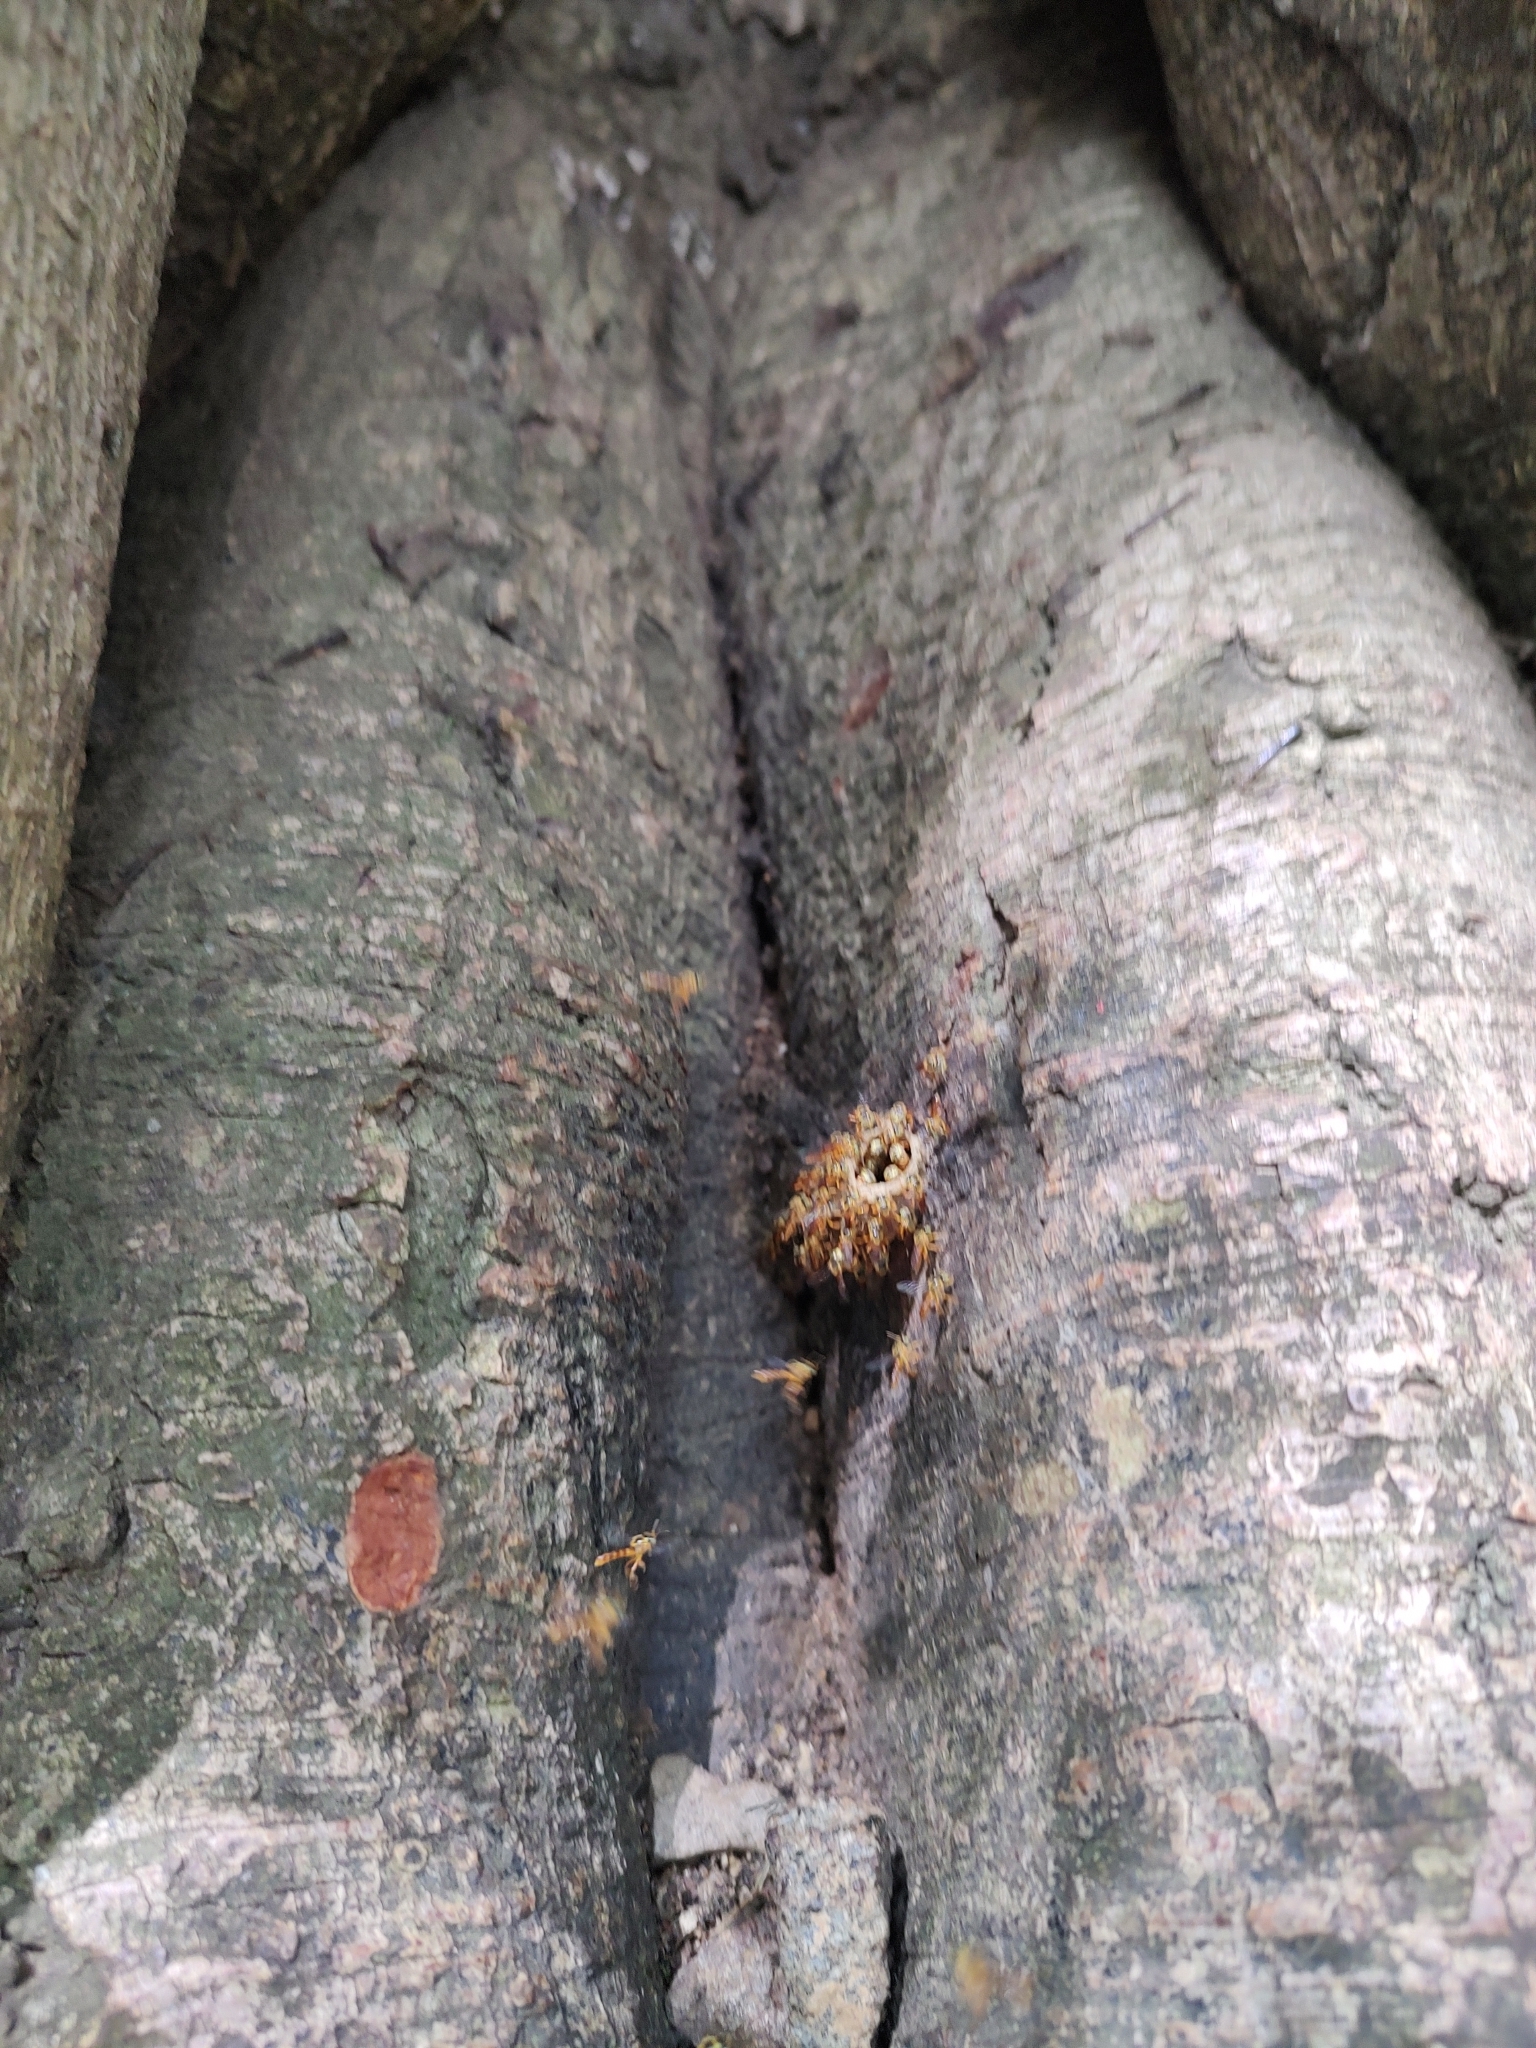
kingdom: Animalia
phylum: Arthropoda
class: Insecta
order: Hymenoptera
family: Apidae
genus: Tetragonisca
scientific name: Tetragonisca fiebrigi
